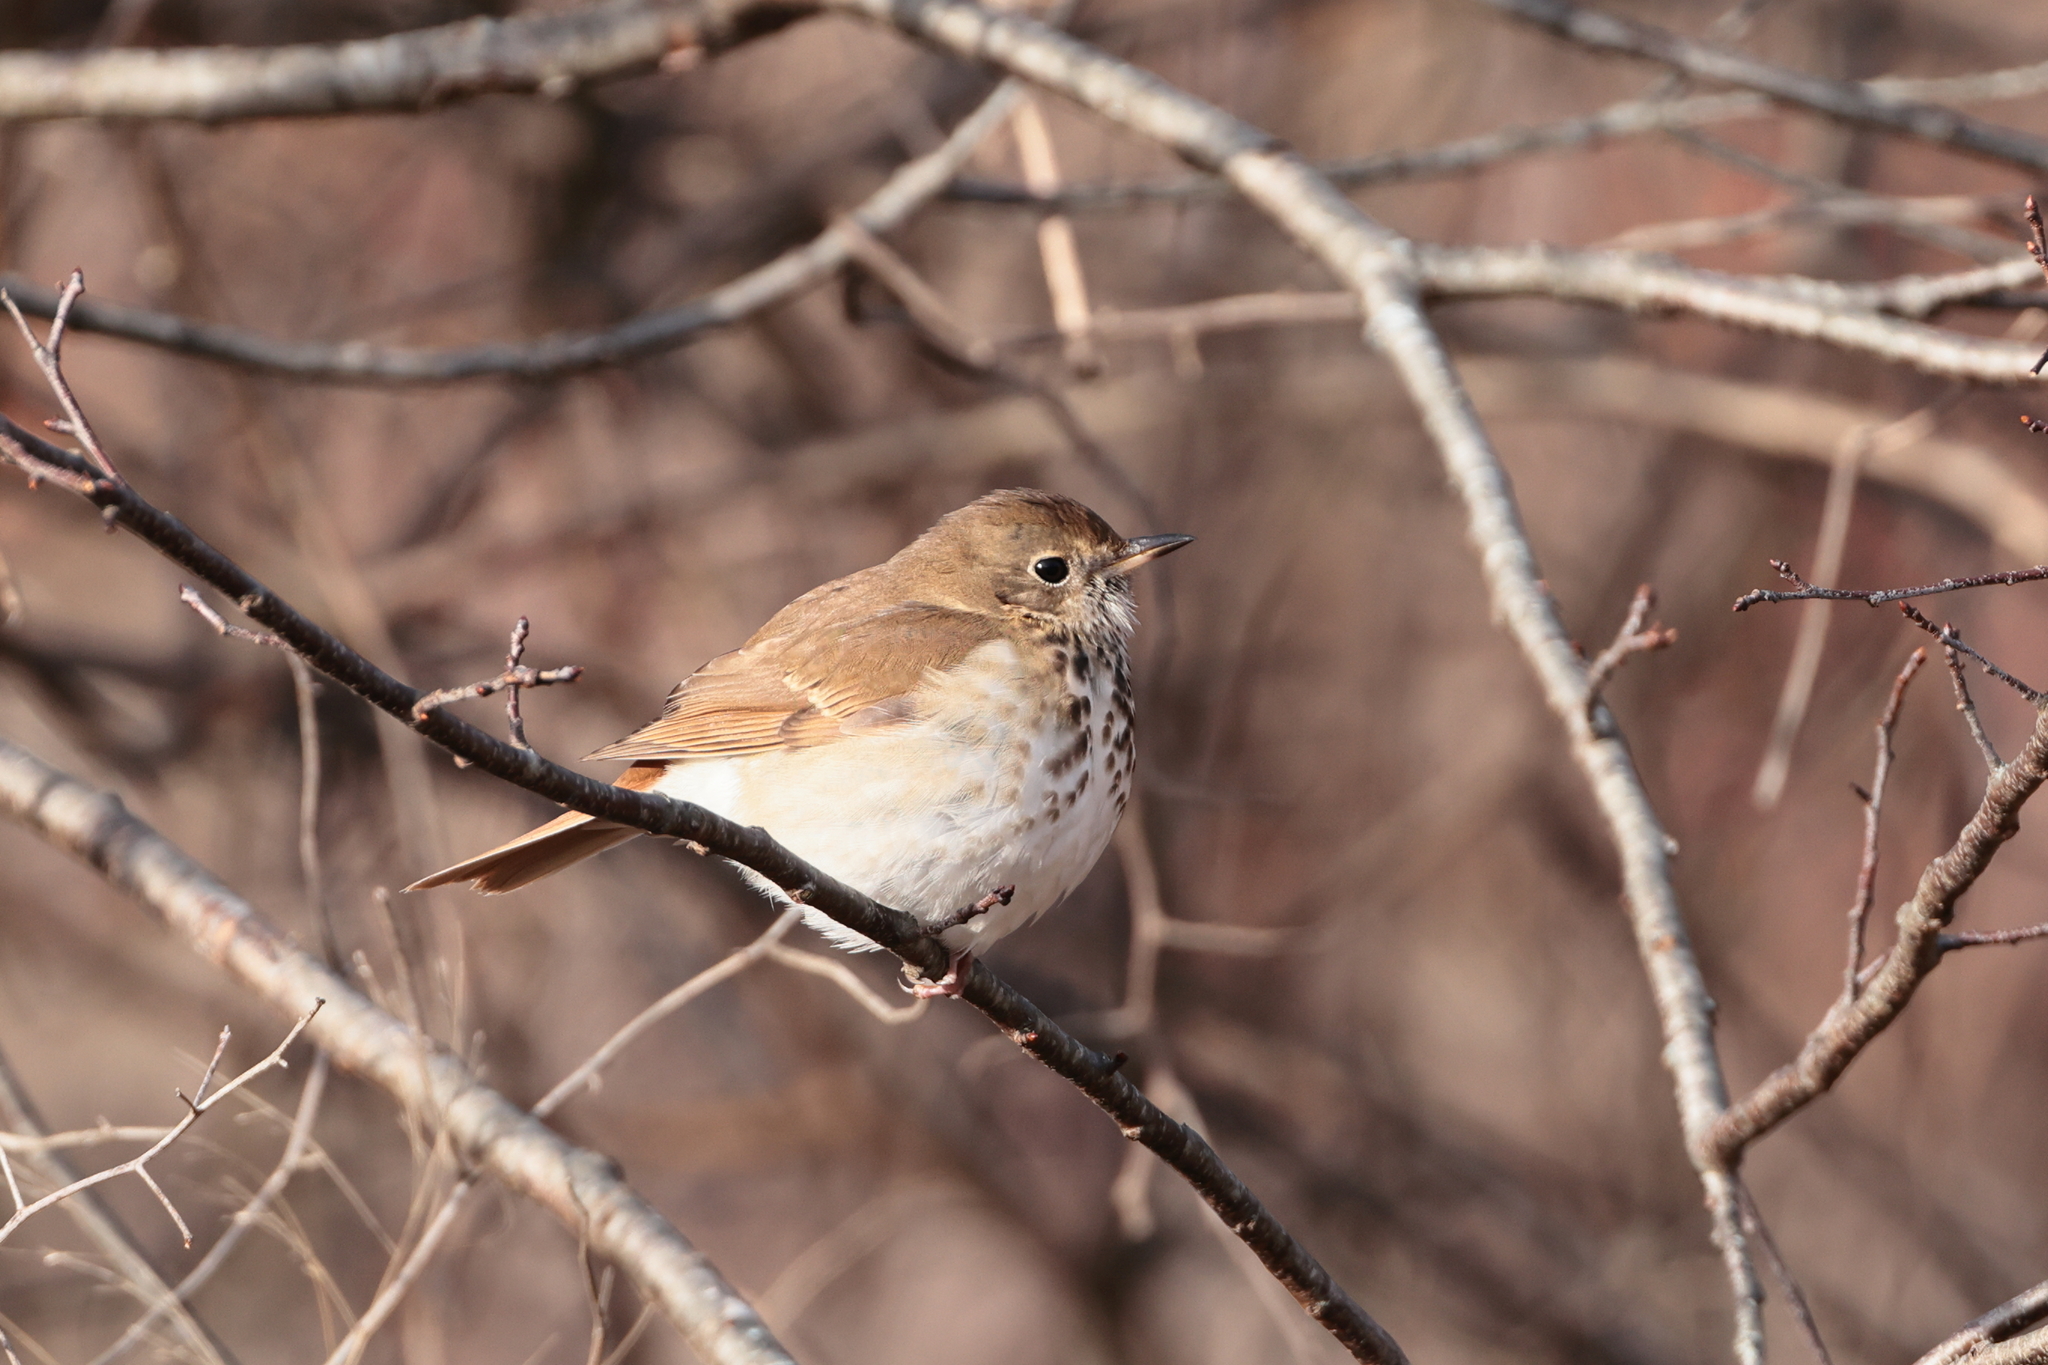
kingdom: Animalia
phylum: Chordata
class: Aves
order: Passeriformes
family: Turdidae
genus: Catharus
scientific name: Catharus guttatus
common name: Hermit thrush
